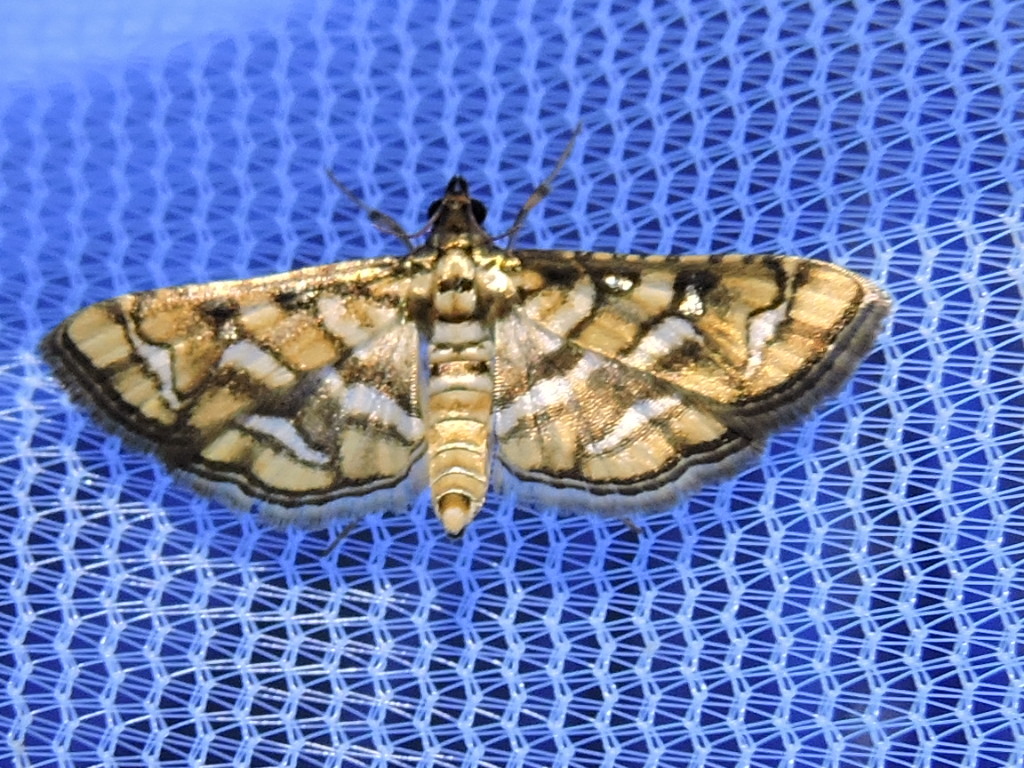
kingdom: Animalia
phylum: Arthropoda
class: Insecta
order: Lepidoptera
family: Crambidae
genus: Hileithia
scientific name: Hileithia magualis
